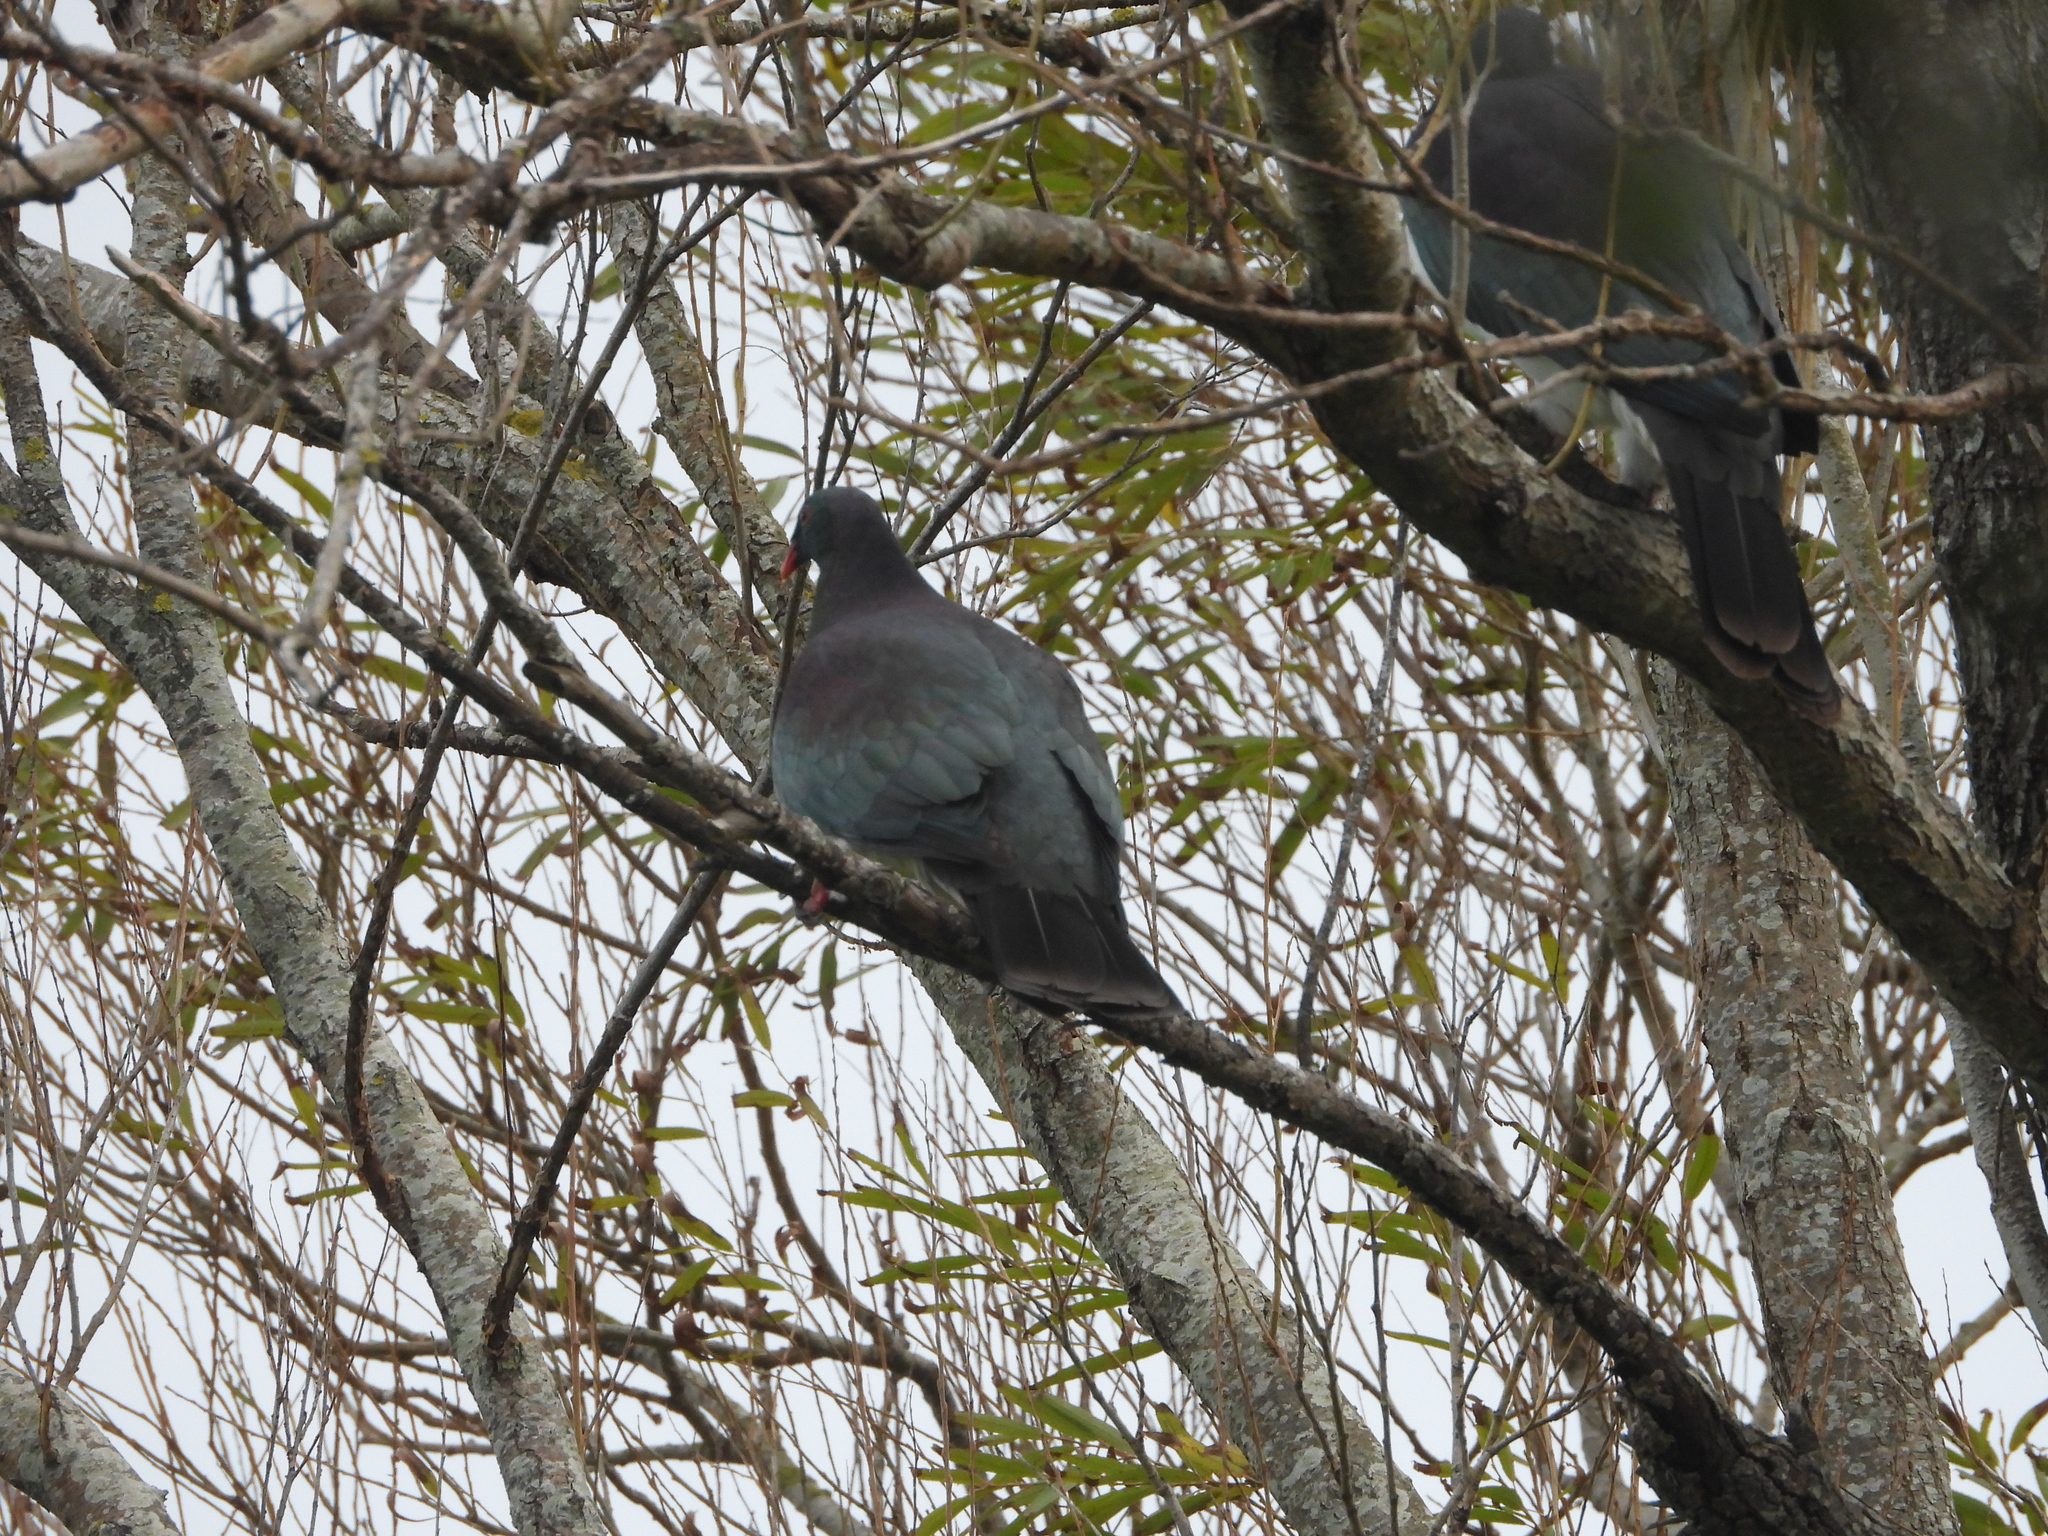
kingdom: Animalia
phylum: Chordata
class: Aves
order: Columbiformes
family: Columbidae
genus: Hemiphaga
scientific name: Hemiphaga novaeseelandiae
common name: New zealand pigeon
